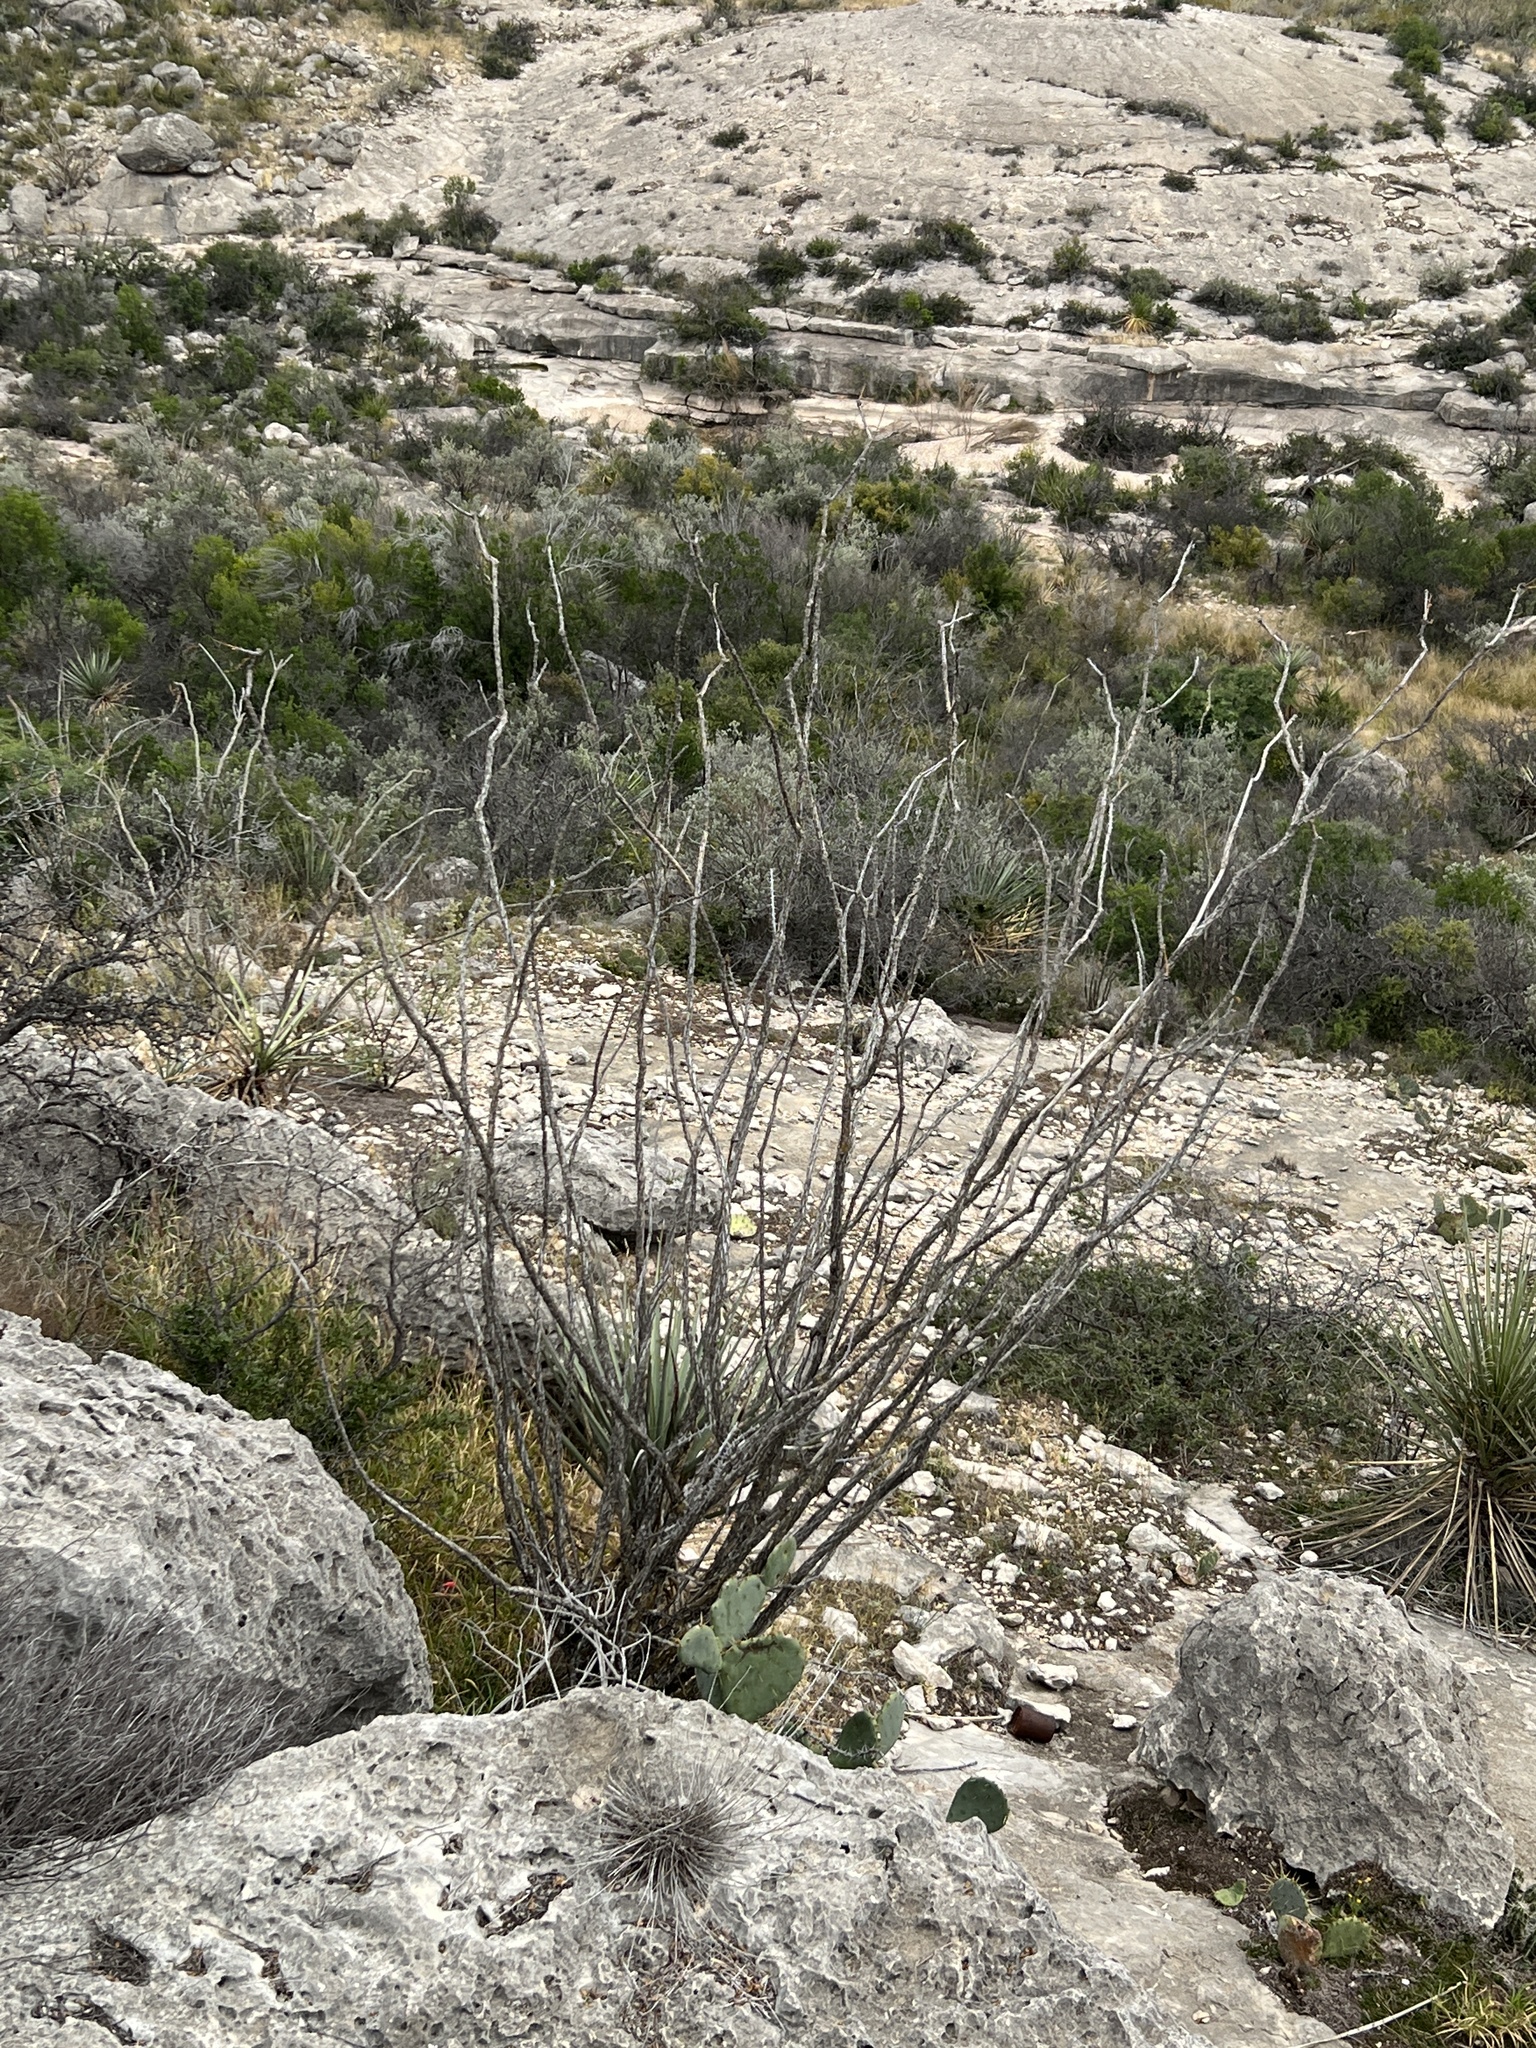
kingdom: Plantae
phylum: Tracheophyta
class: Magnoliopsida
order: Ericales
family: Fouquieriaceae
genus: Fouquieria
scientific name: Fouquieria splendens
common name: Vine-cactus
